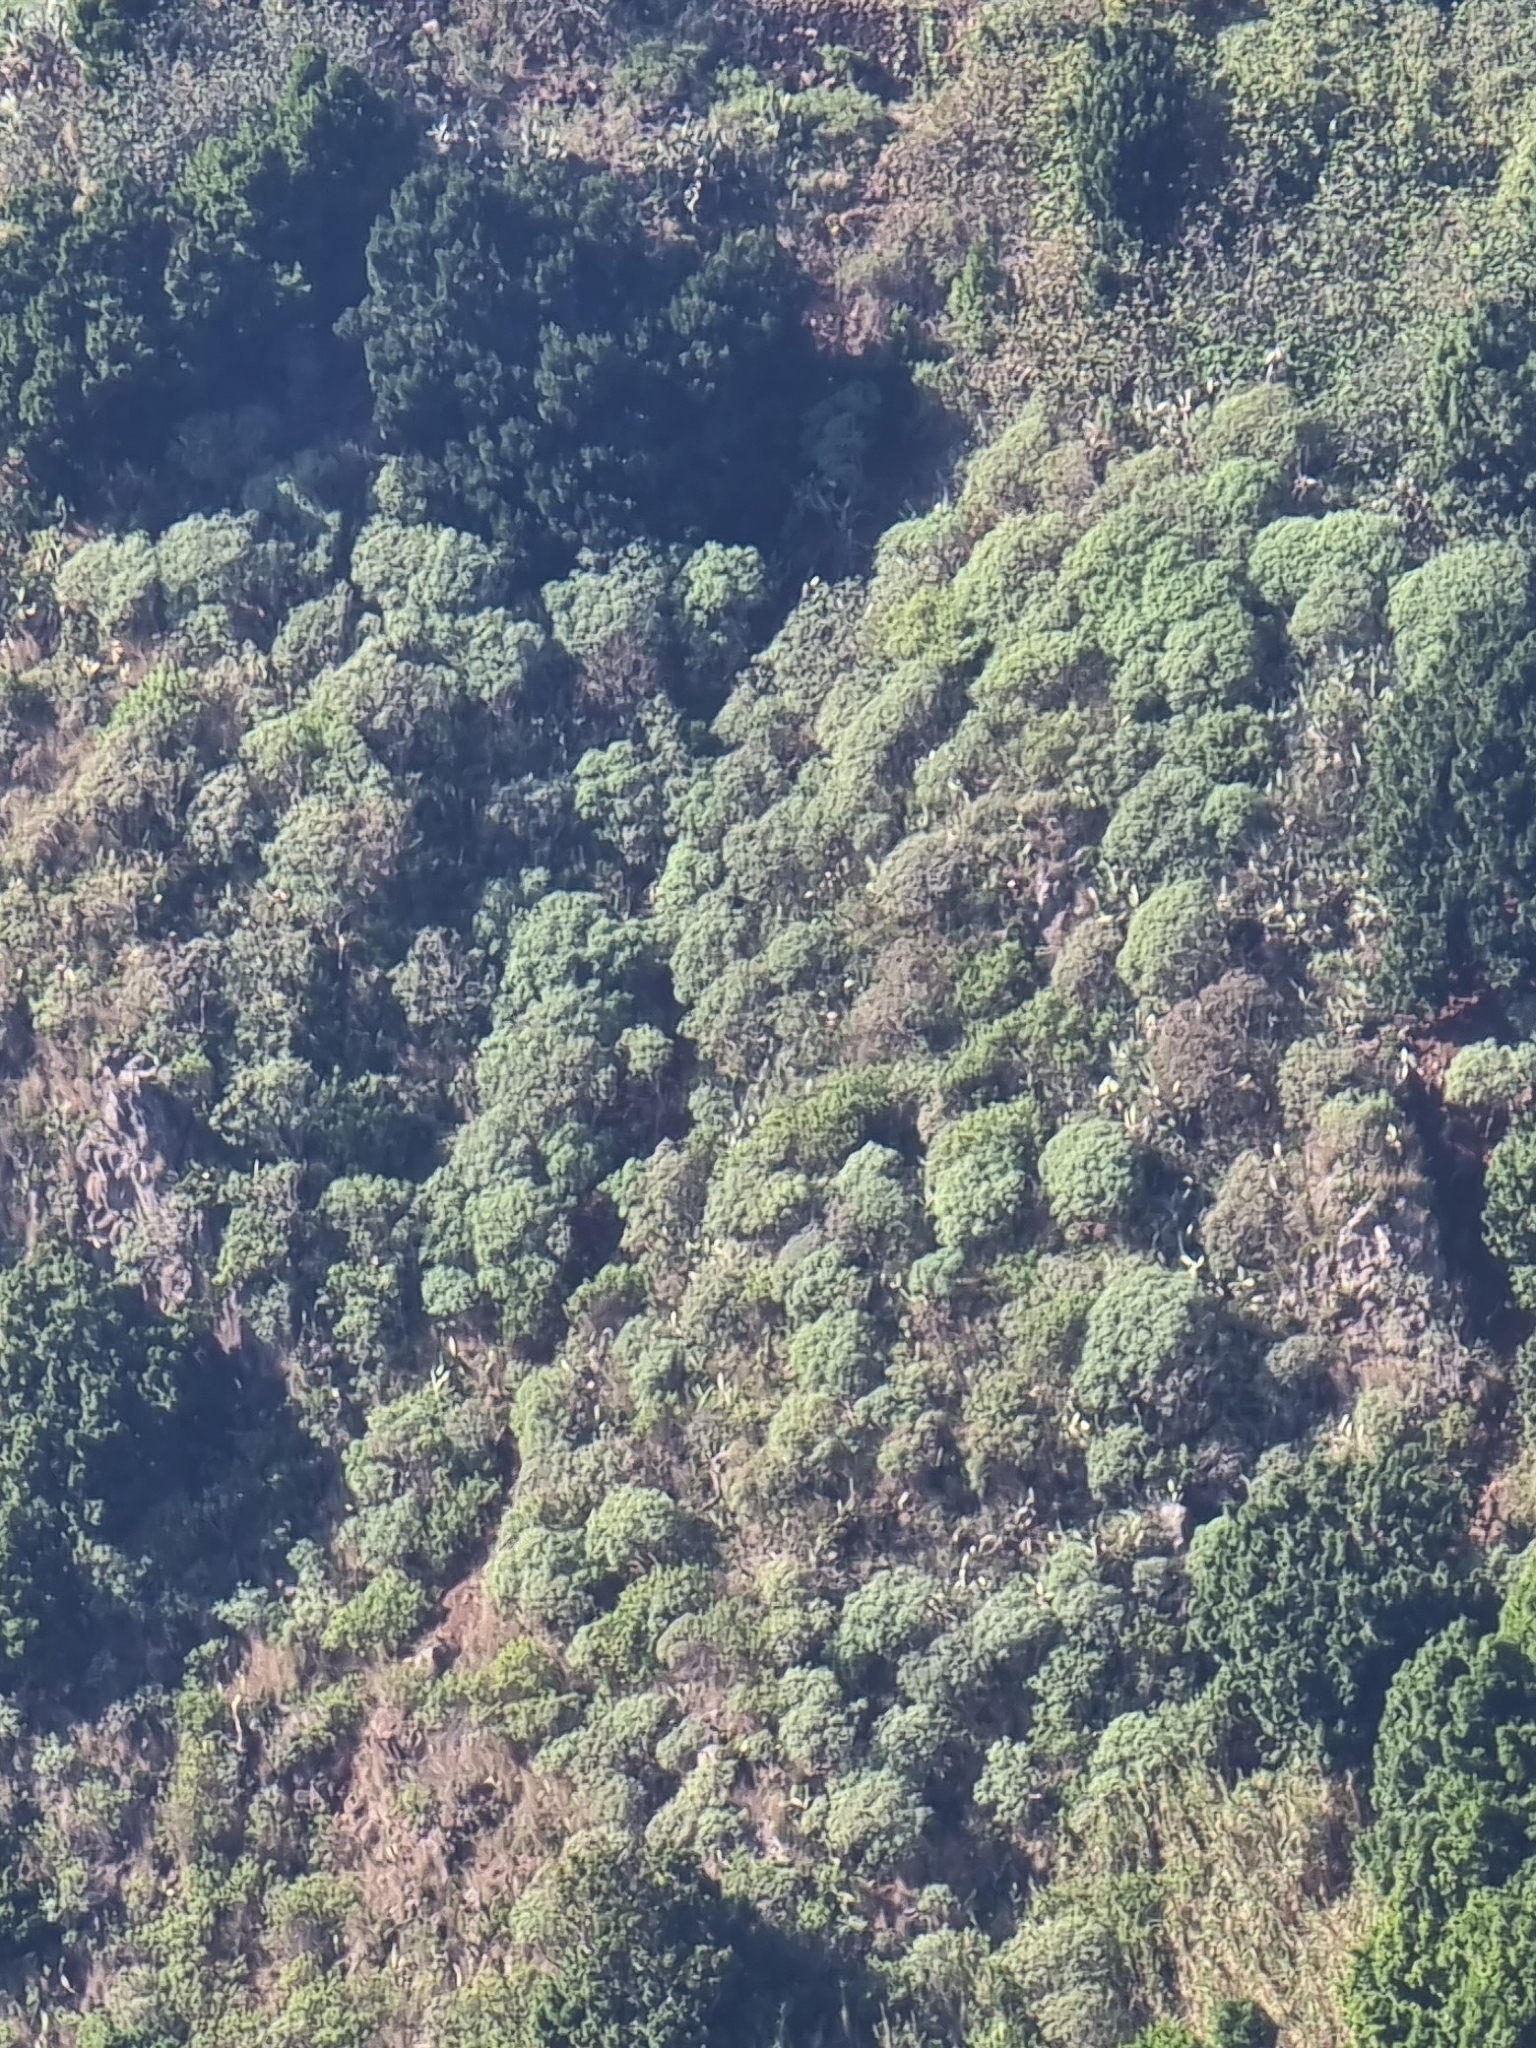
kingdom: Plantae
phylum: Tracheophyta
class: Magnoliopsida
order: Malpighiales
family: Euphorbiaceae
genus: Euphorbia
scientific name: Euphorbia piscatoria
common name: Fish-stunning spurge
